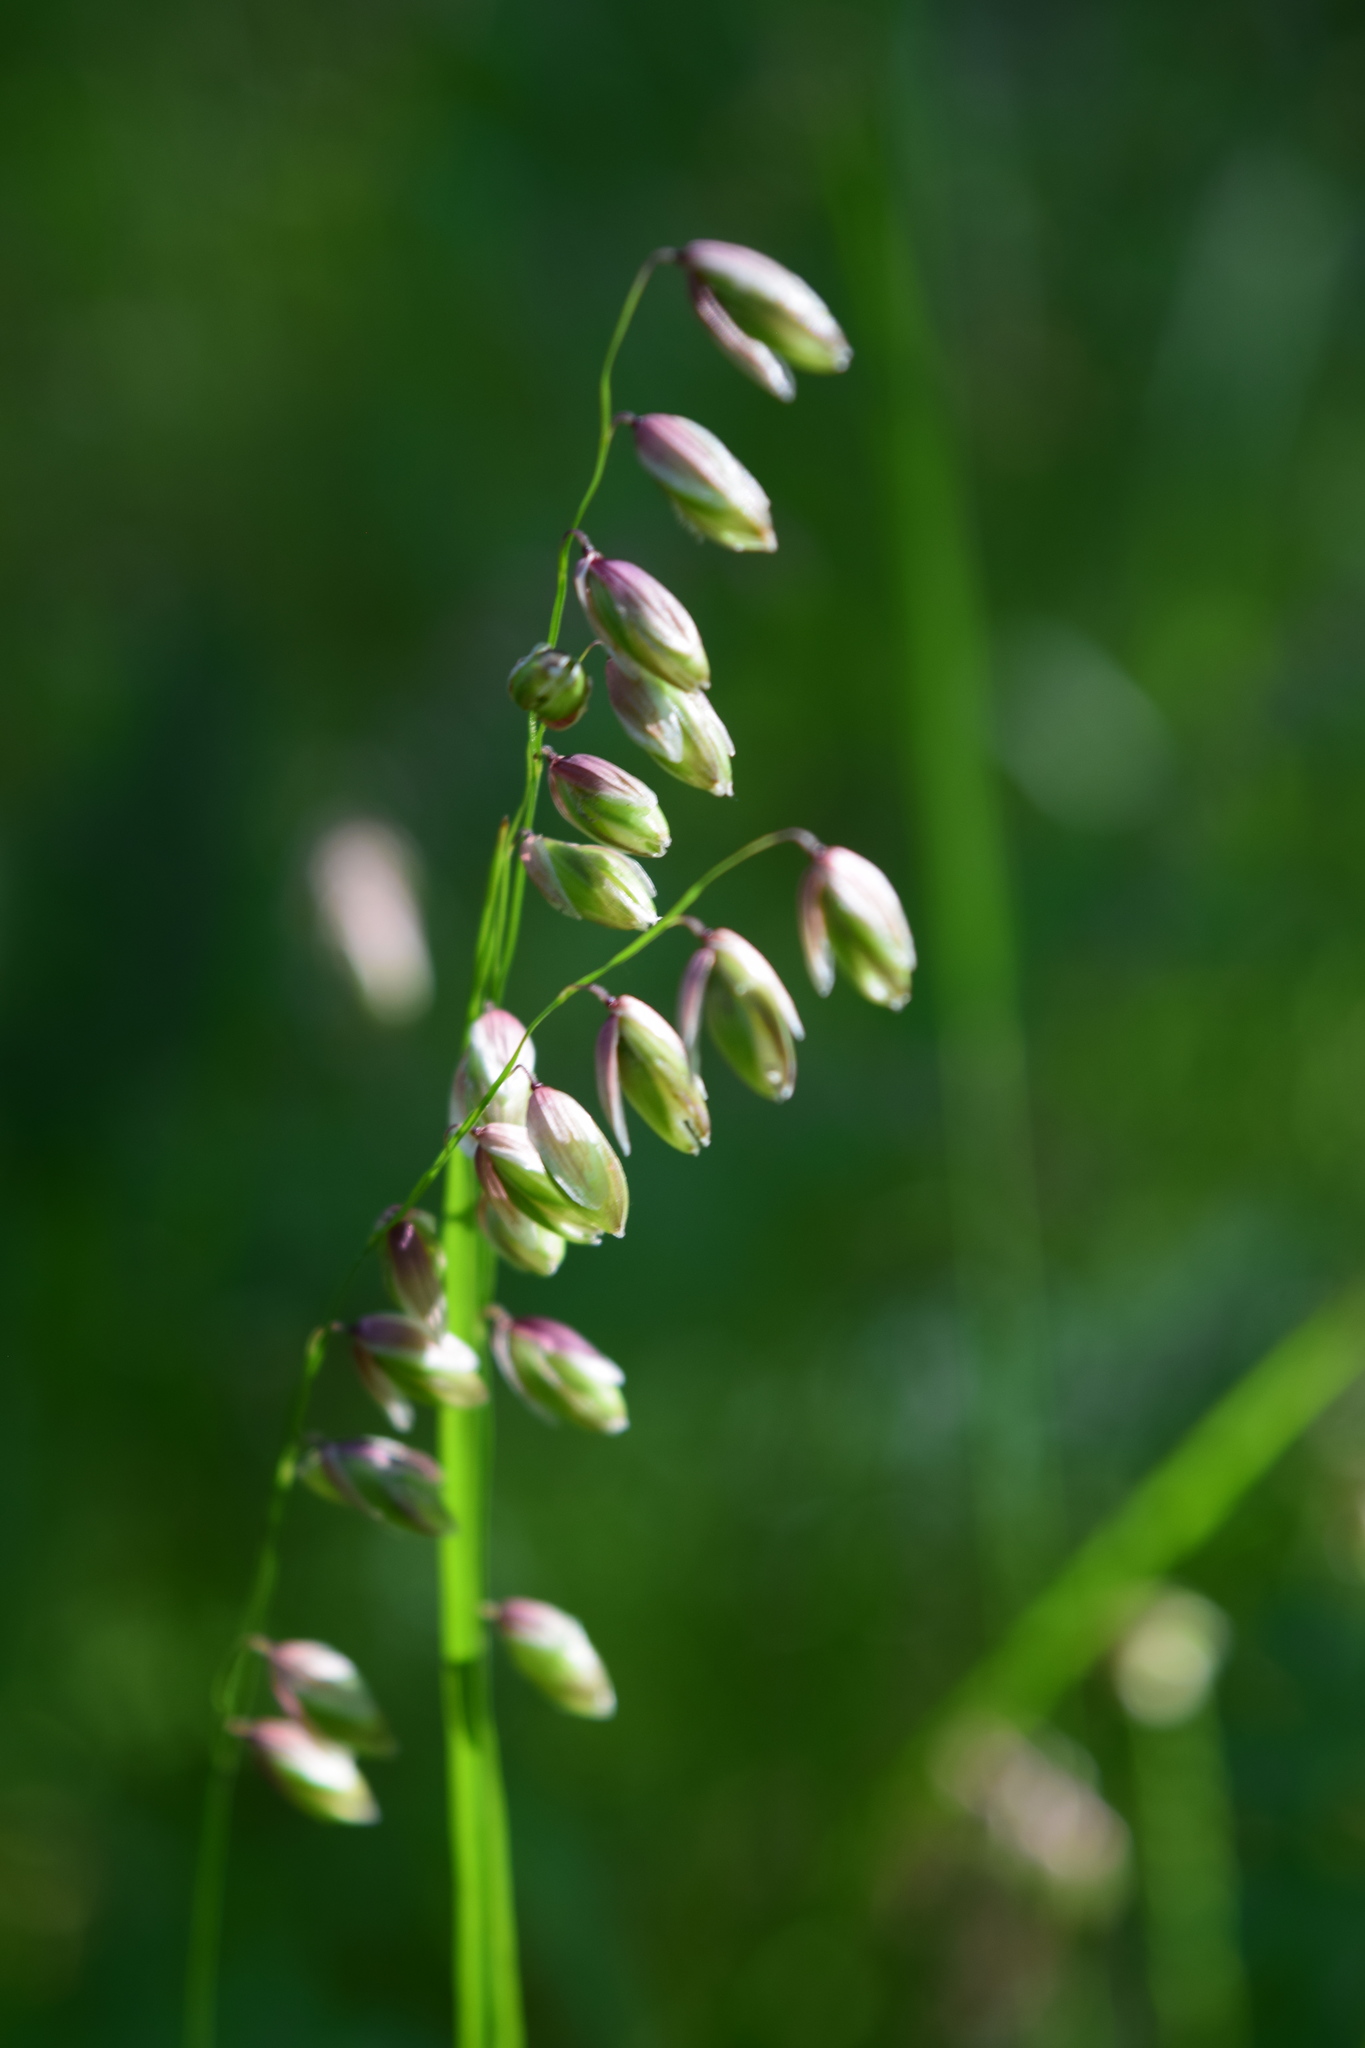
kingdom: Plantae
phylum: Tracheophyta
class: Liliopsida
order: Poales
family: Poaceae
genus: Melica
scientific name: Melica nutans
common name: Mountain melick
